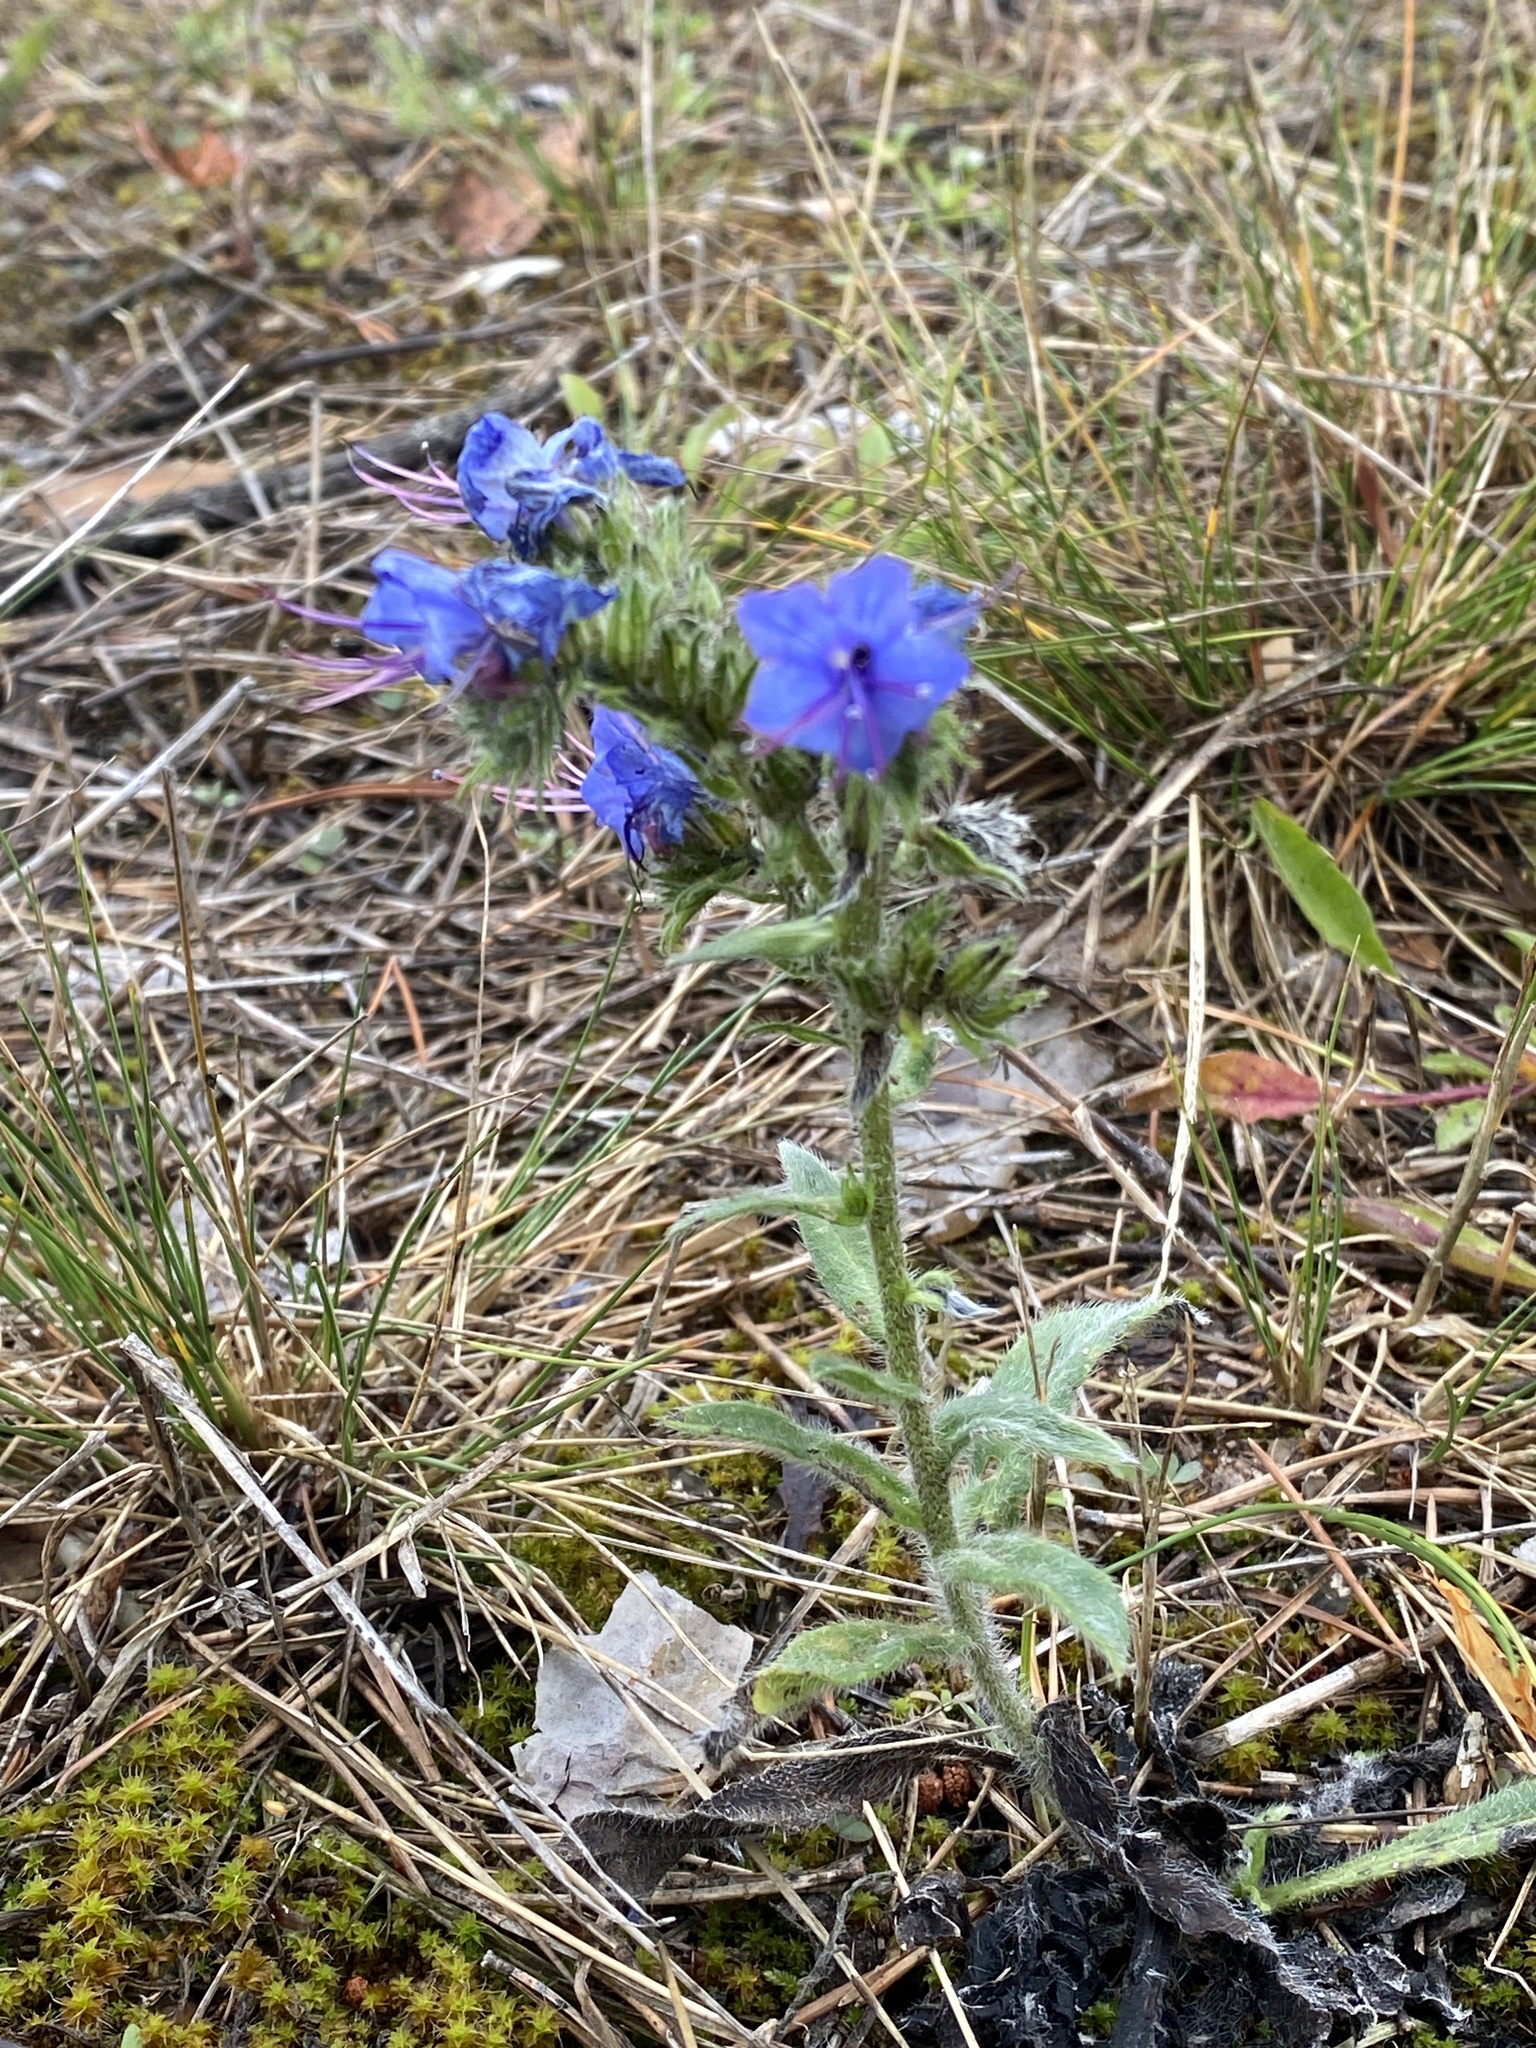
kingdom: Plantae
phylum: Tracheophyta
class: Magnoliopsida
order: Boraginales
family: Boraginaceae
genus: Echium
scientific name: Echium vulgare
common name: Common viper's bugloss
